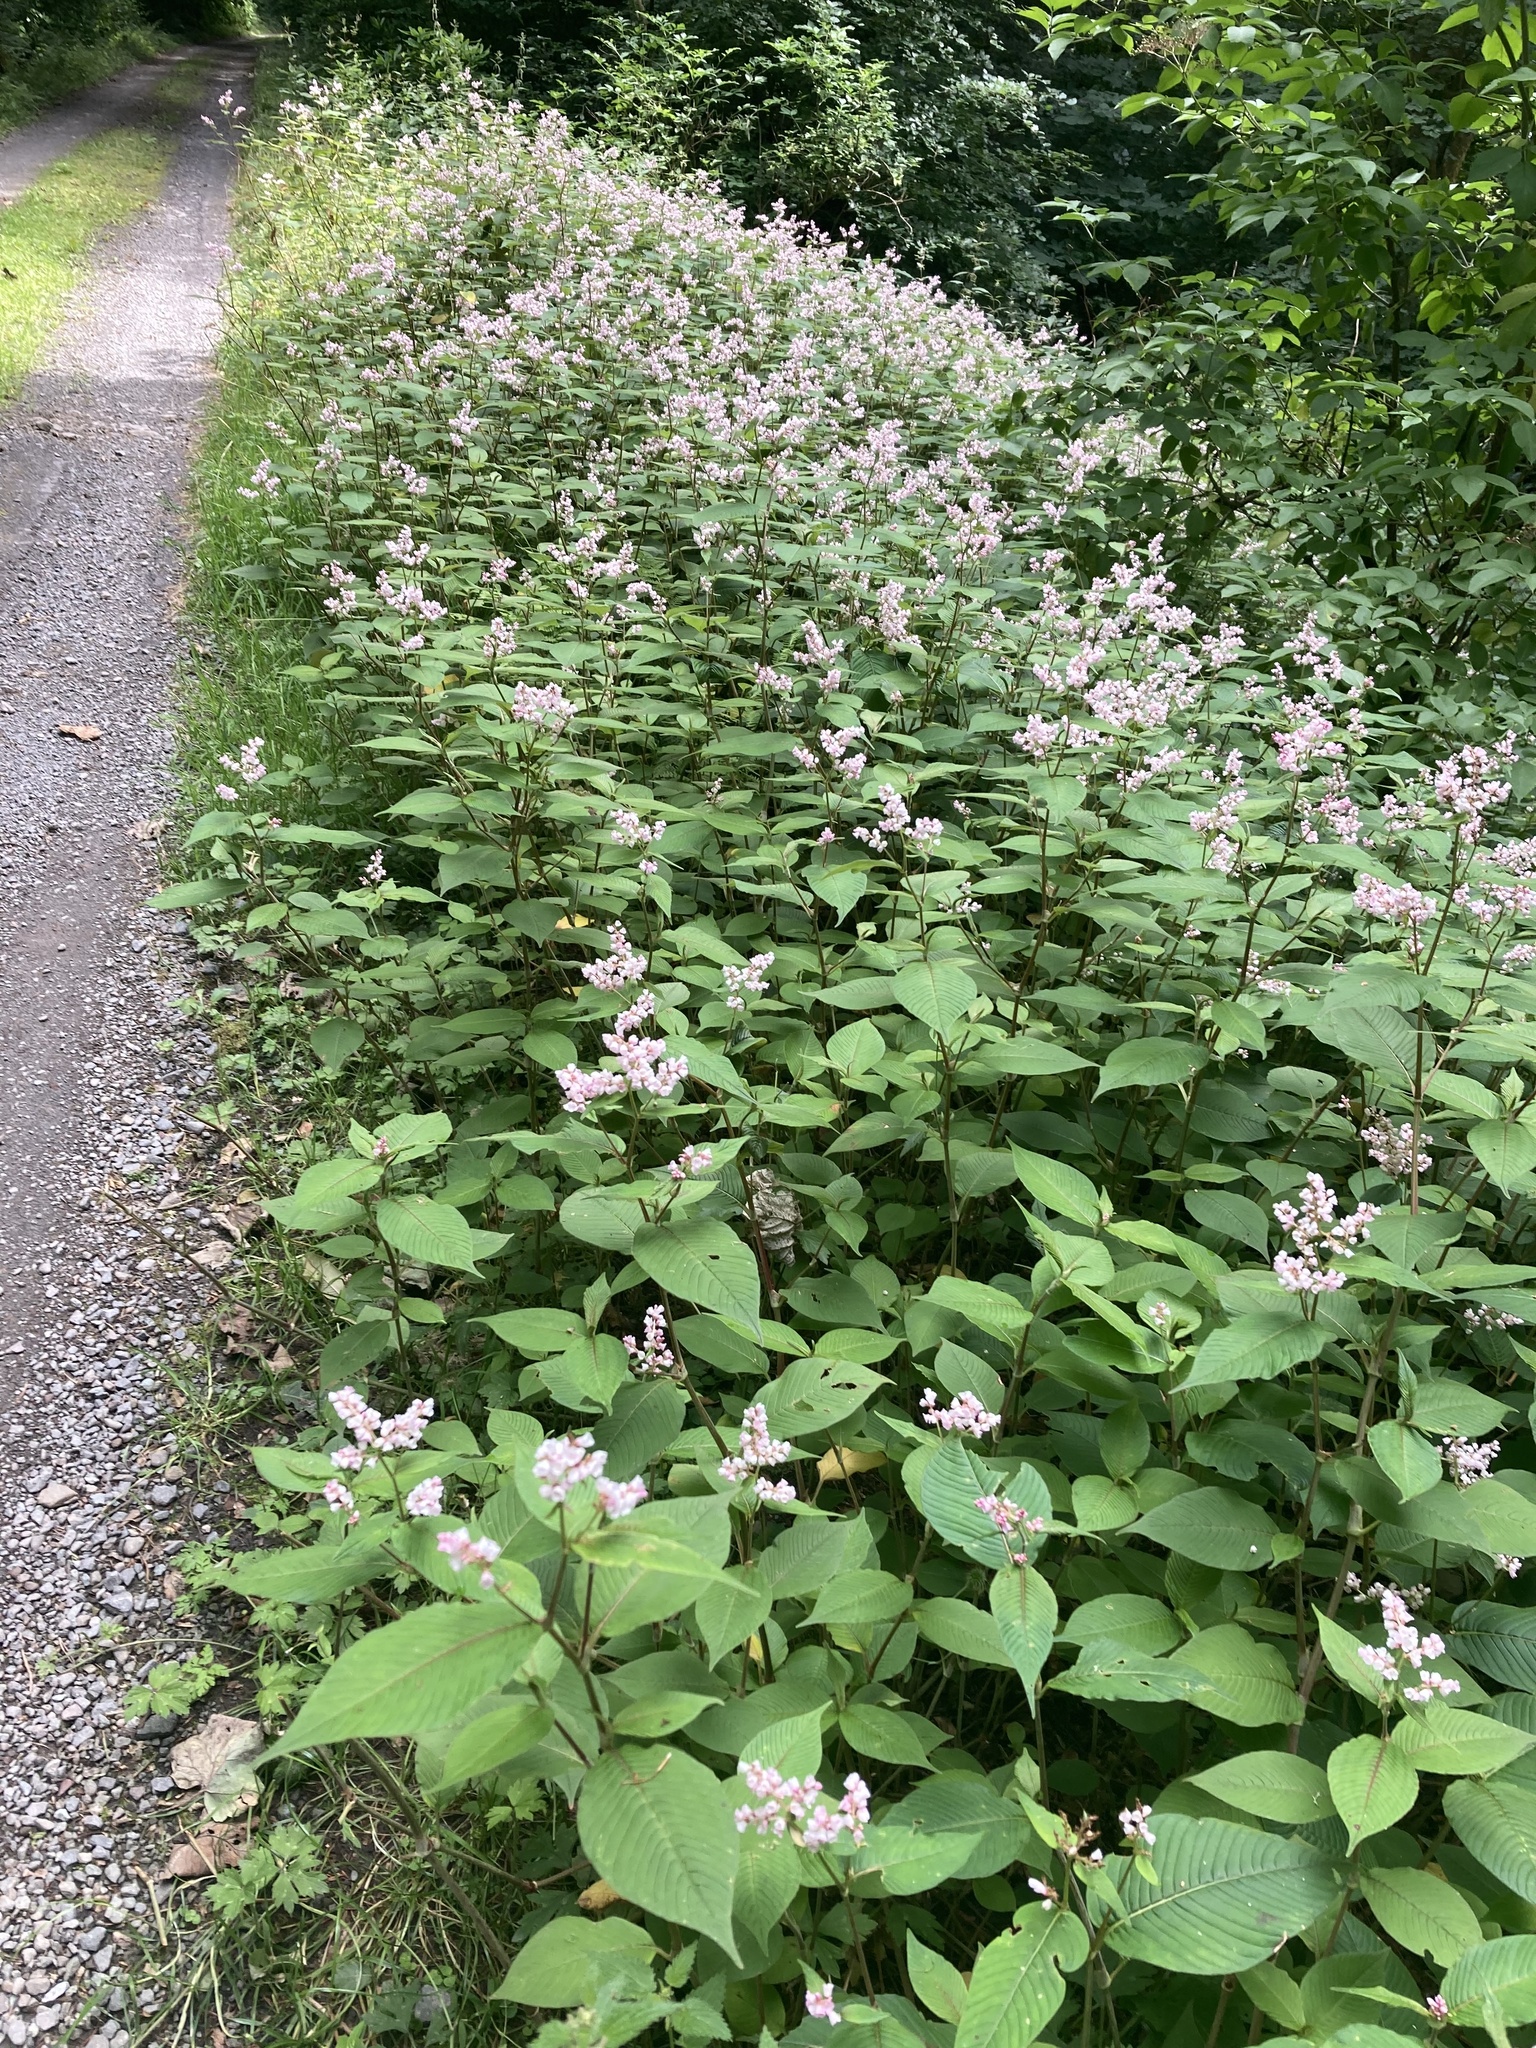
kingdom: Plantae
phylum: Tracheophyta
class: Magnoliopsida
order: Caryophyllales
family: Polygonaceae
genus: Koenigia
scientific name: Koenigia campanulata
